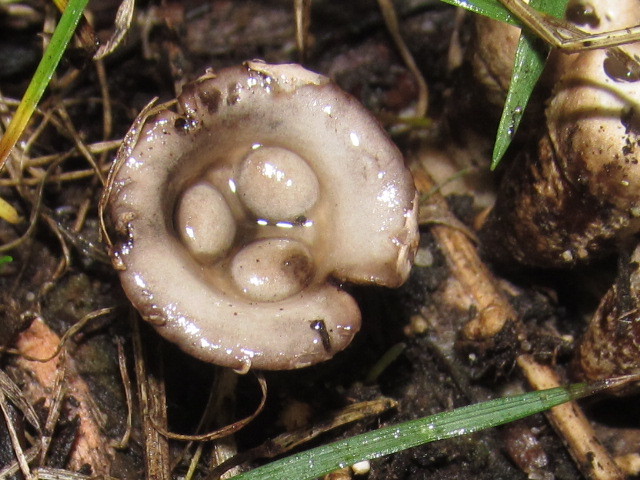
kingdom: Fungi
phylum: Basidiomycota
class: Agaricomycetes
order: Agaricales
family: Agaricaceae
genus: Cyathus
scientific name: Cyathus olla
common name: Field bird's nest
